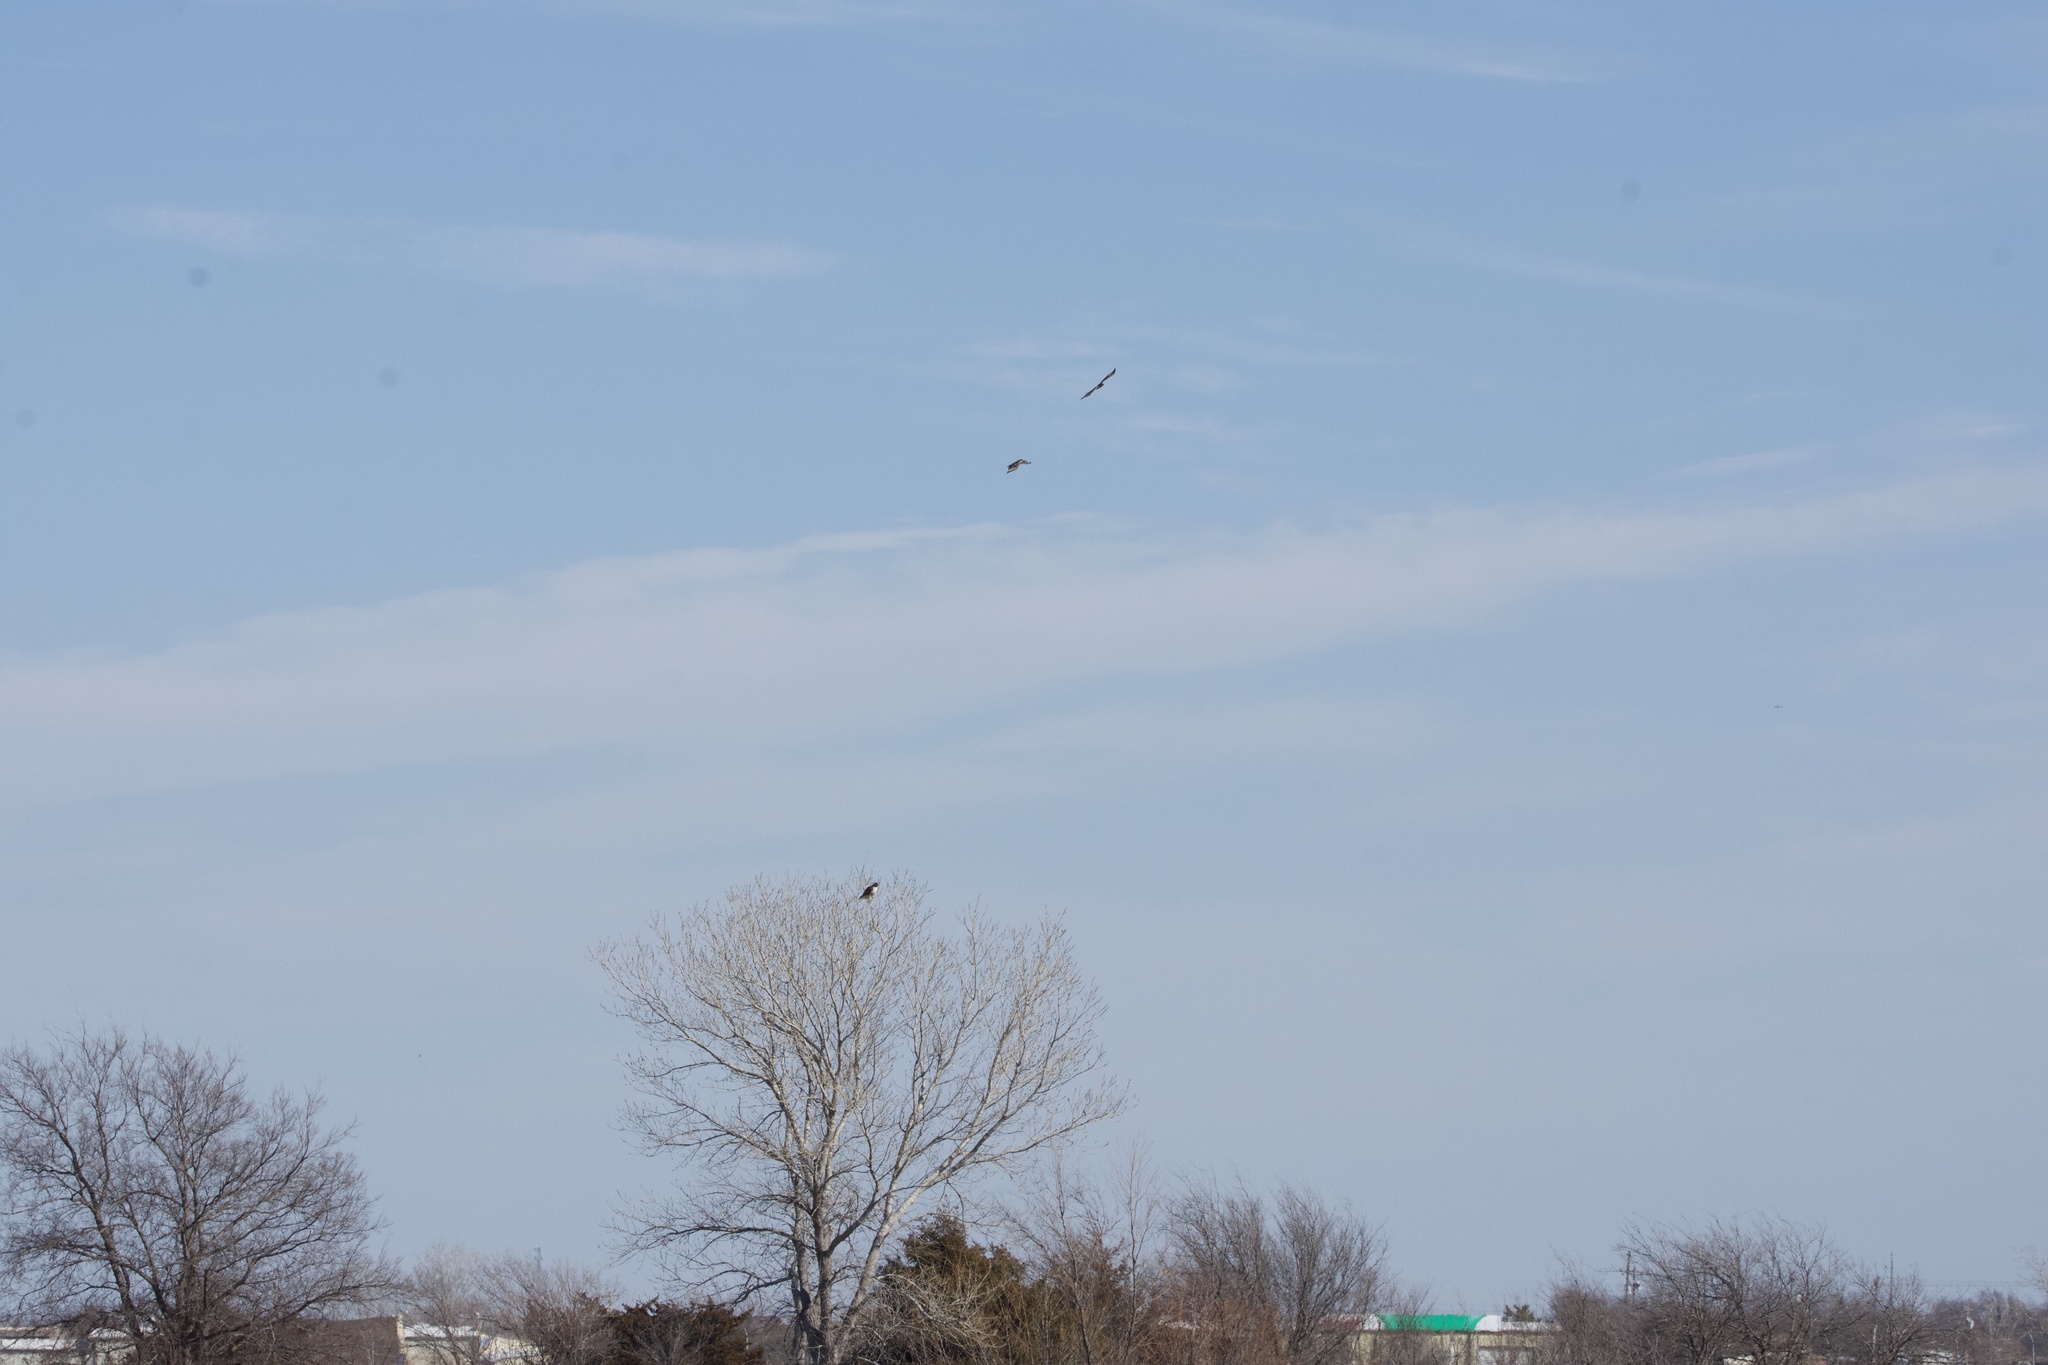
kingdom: Animalia
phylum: Chordata
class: Aves
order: Accipitriformes
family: Accipitridae
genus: Buteo
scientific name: Buteo jamaicensis
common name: Red-tailed hawk
